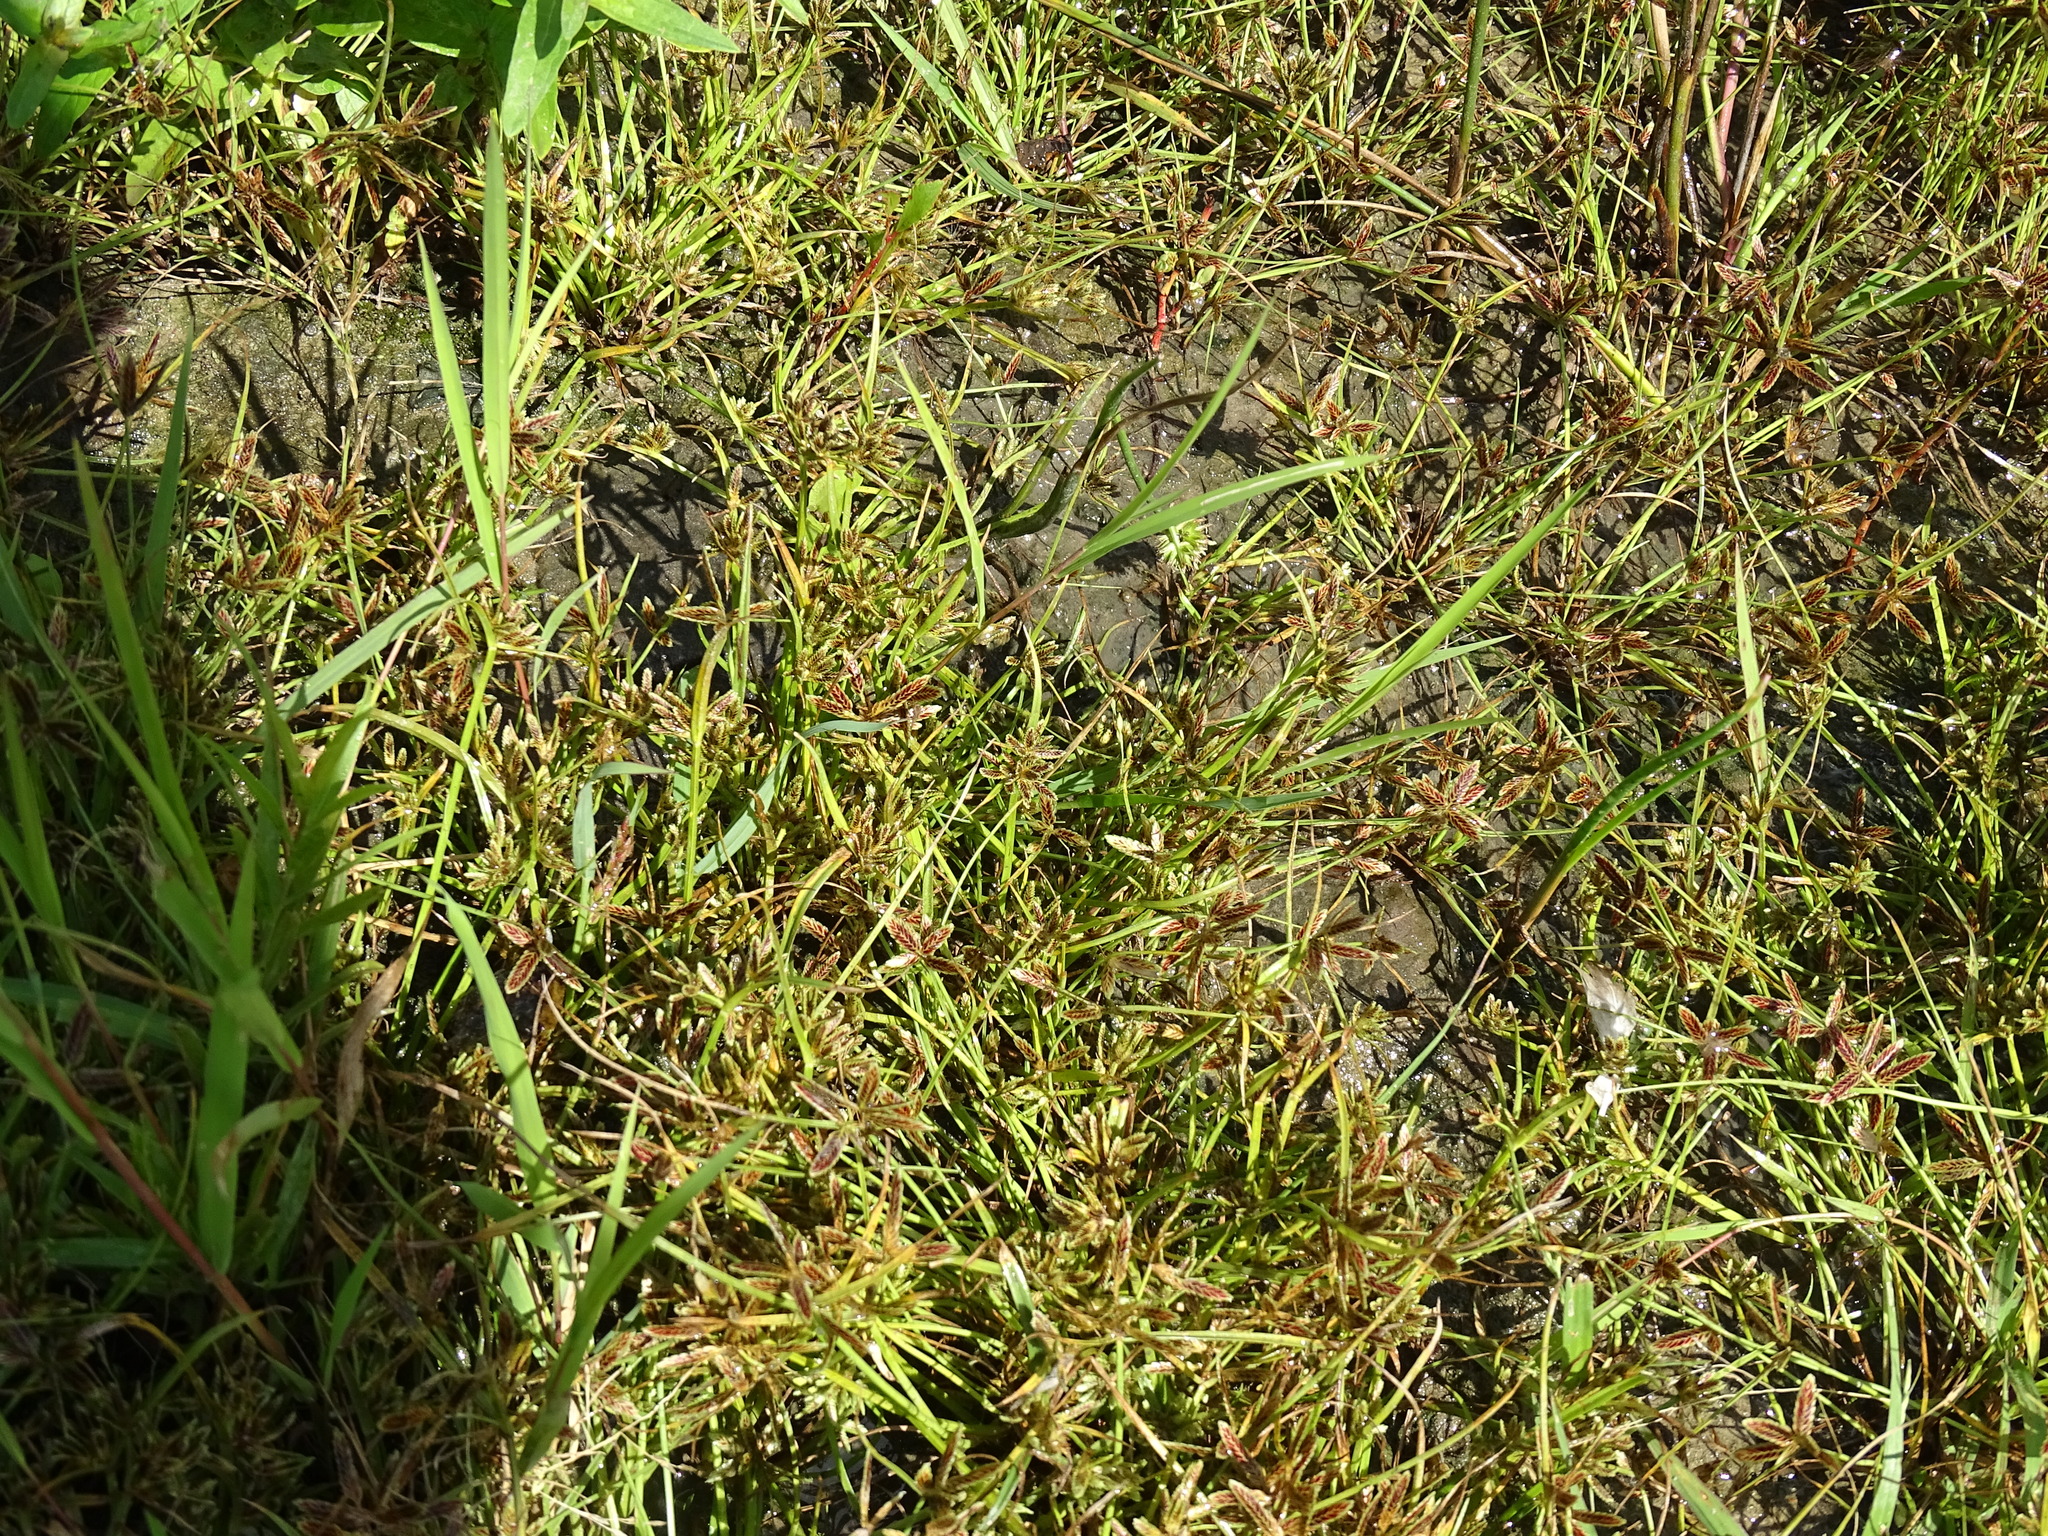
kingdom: Plantae
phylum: Tracheophyta
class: Liliopsida
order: Poales
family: Cyperaceae
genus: Cyperus
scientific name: Cyperus bipartitus
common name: Brook flatsedge
